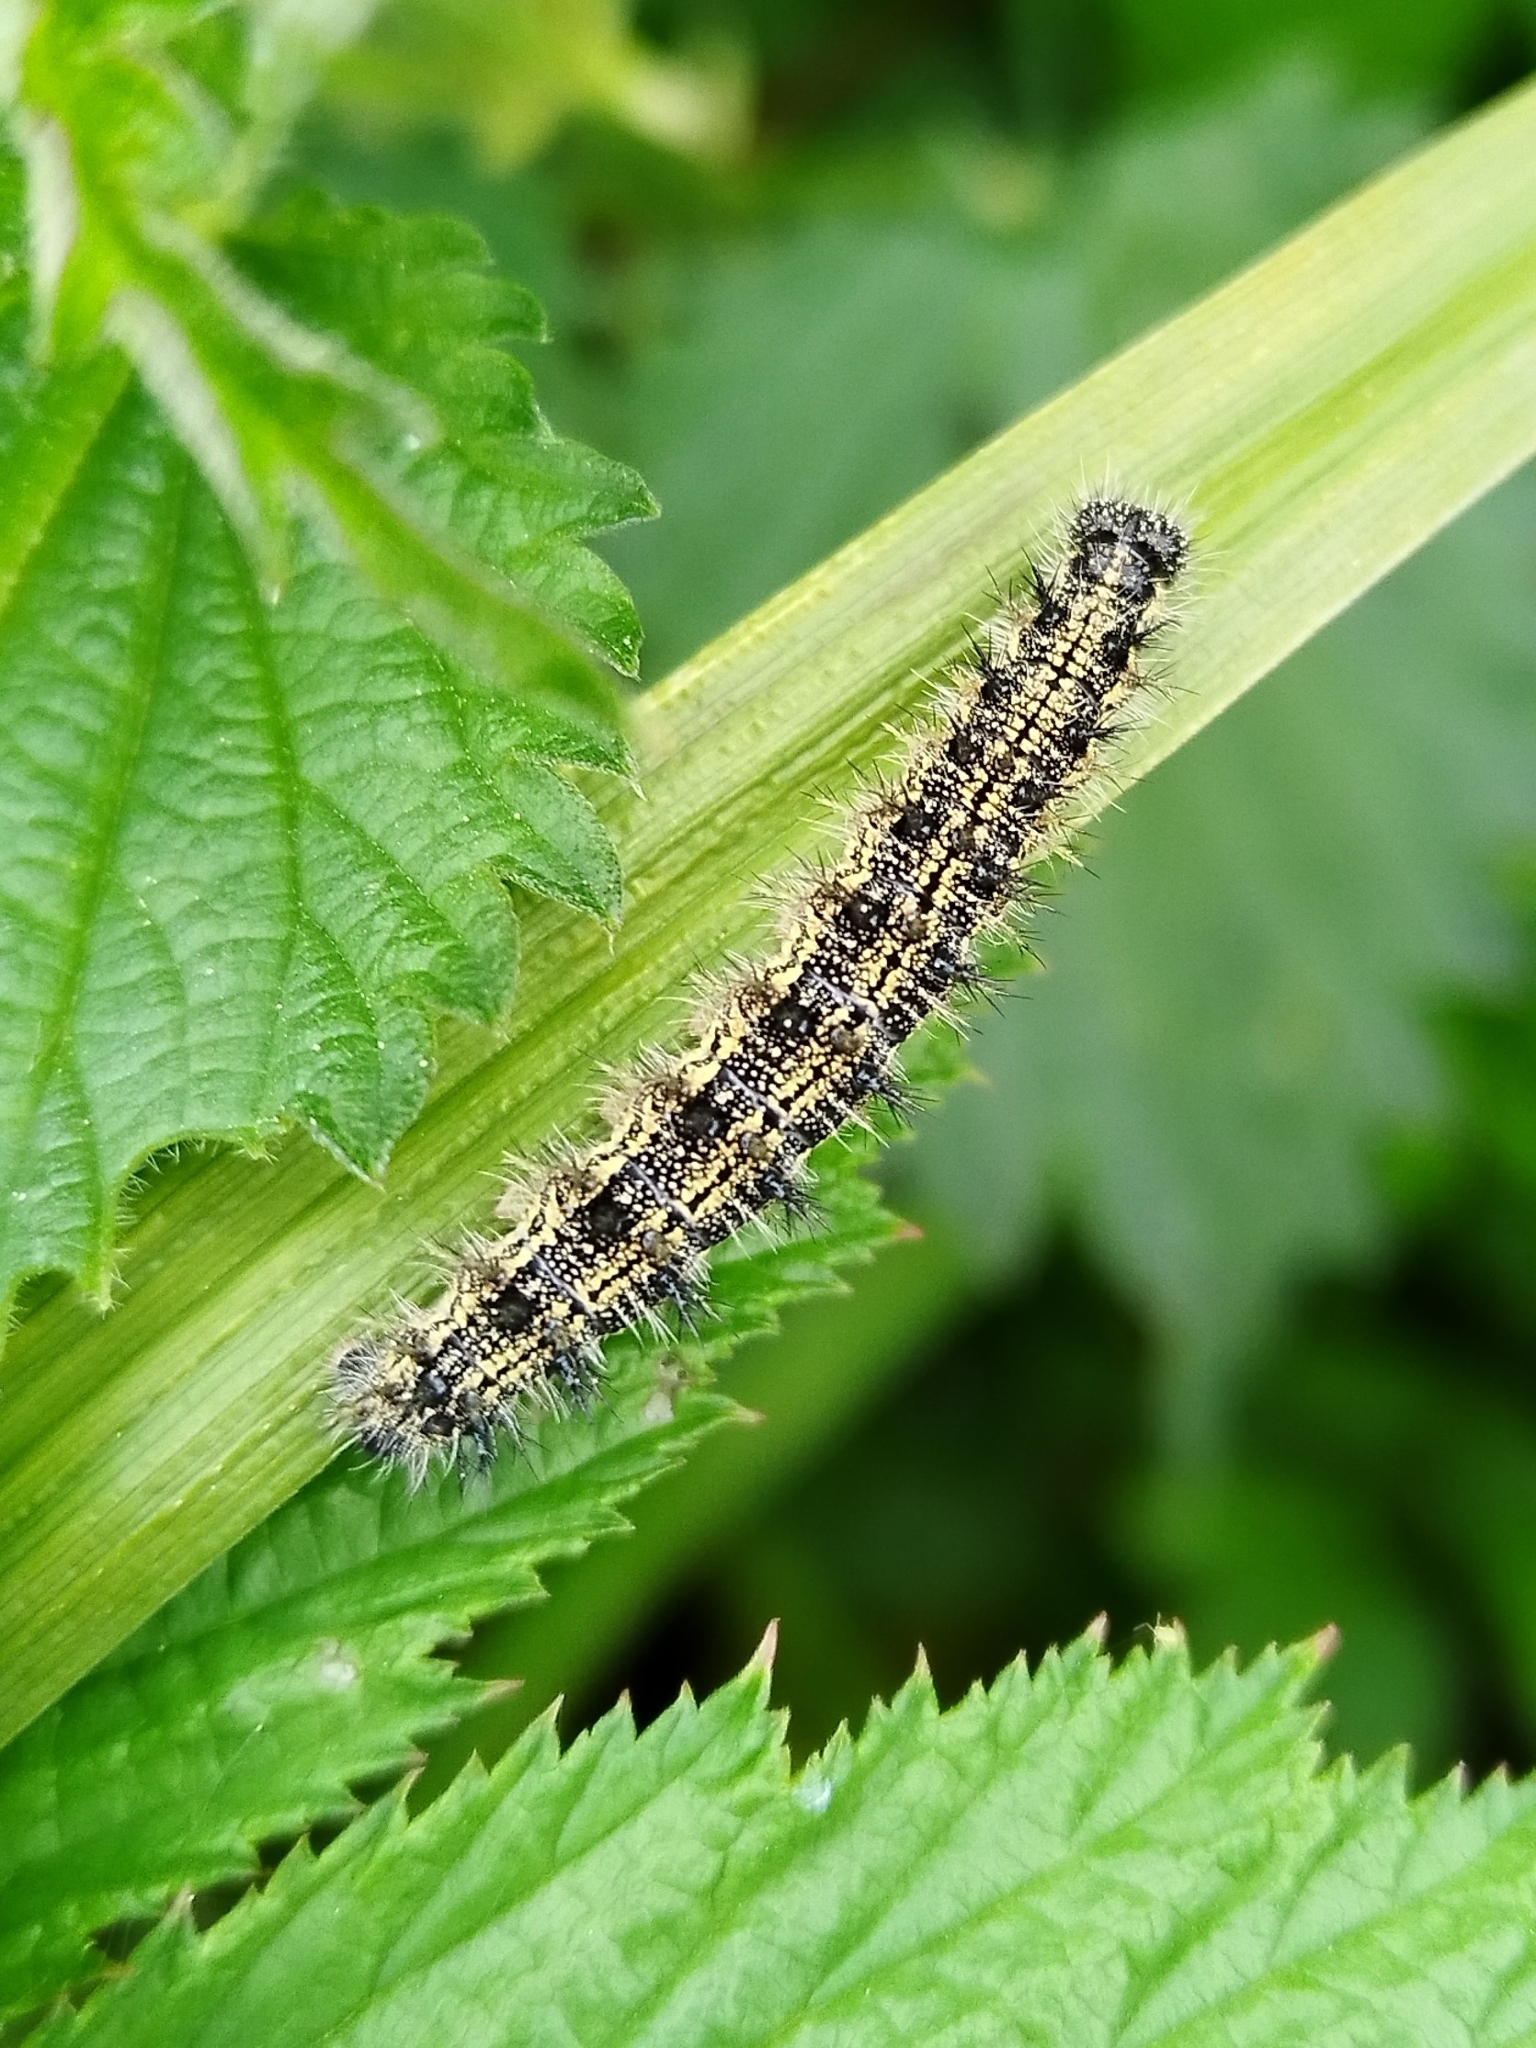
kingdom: Animalia
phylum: Arthropoda
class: Insecta
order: Lepidoptera
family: Nymphalidae
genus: Aglais
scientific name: Aglais urticae
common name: Small tortoiseshell
